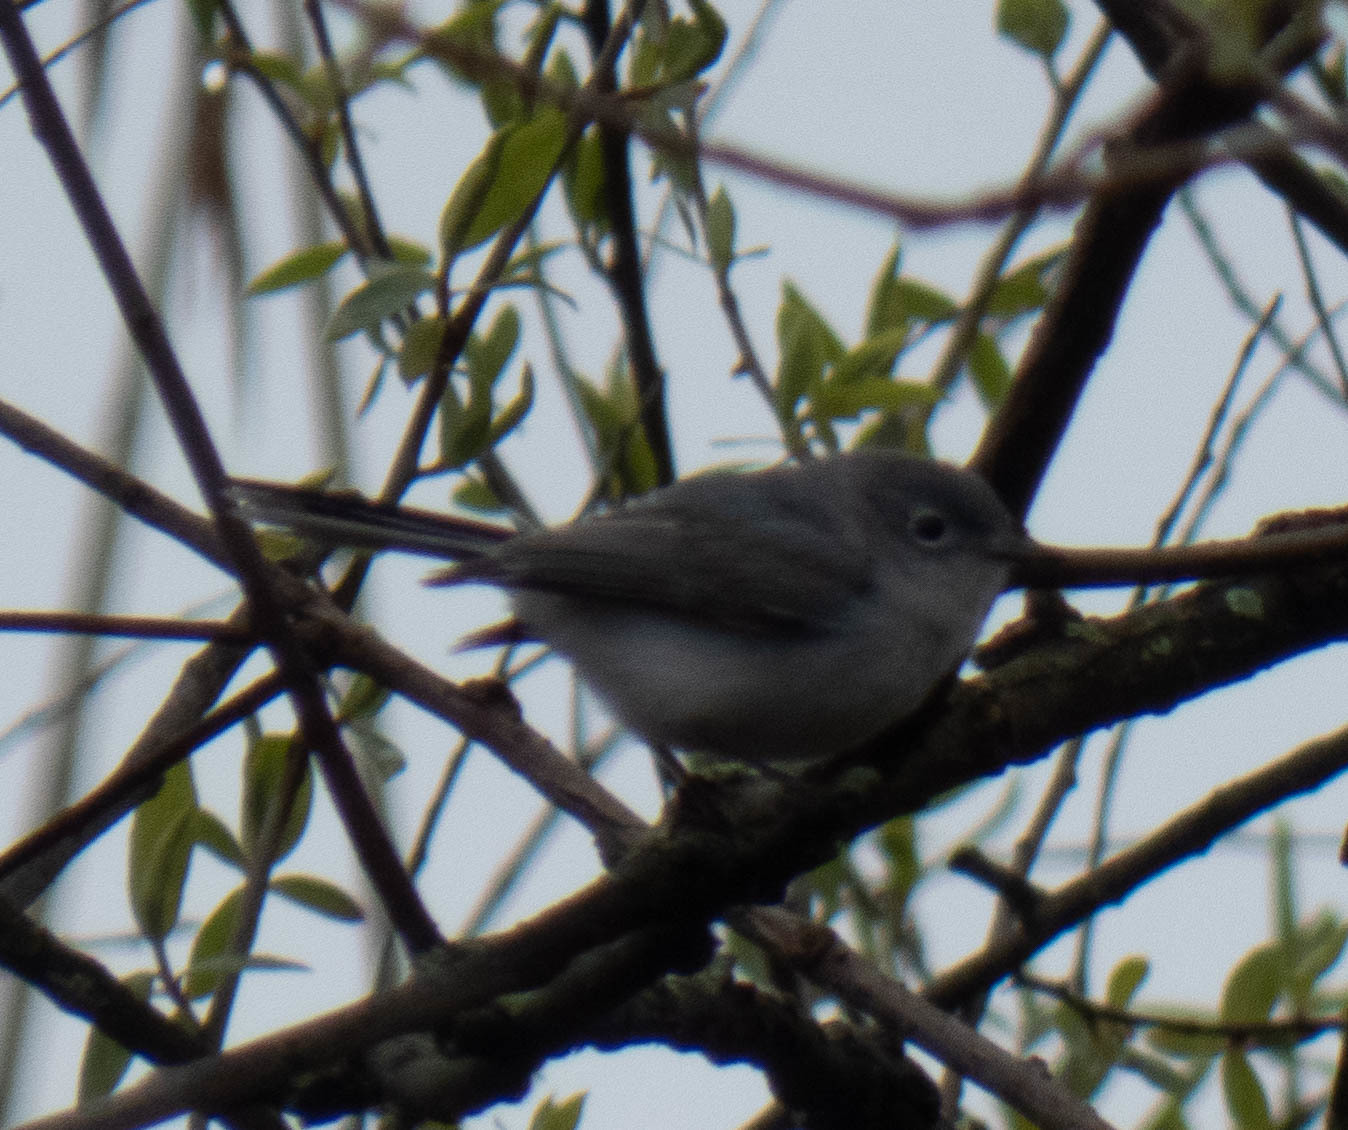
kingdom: Animalia
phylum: Chordata
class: Aves
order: Passeriformes
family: Polioptilidae
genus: Polioptila
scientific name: Polioptila caerulea
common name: Blue-gray gnatcatcher
